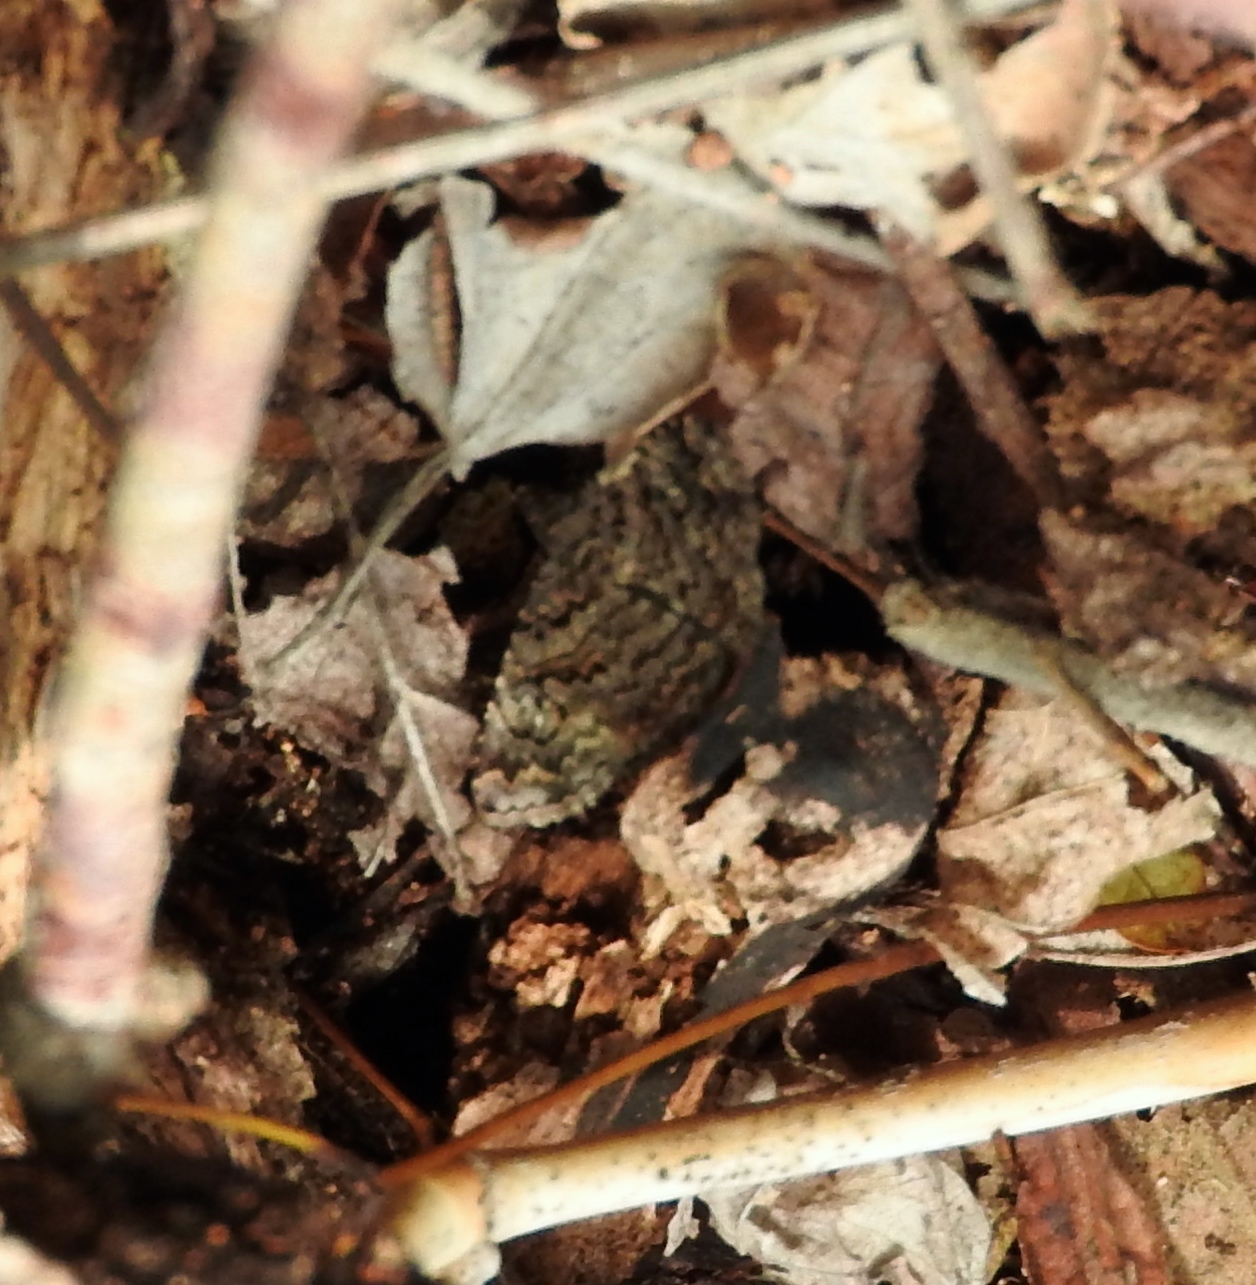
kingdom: Animalia
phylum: Arthropoda
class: Insecta
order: Lepidoptera
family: Erebidae
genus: Toxonprucha
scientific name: Toxonprucha
